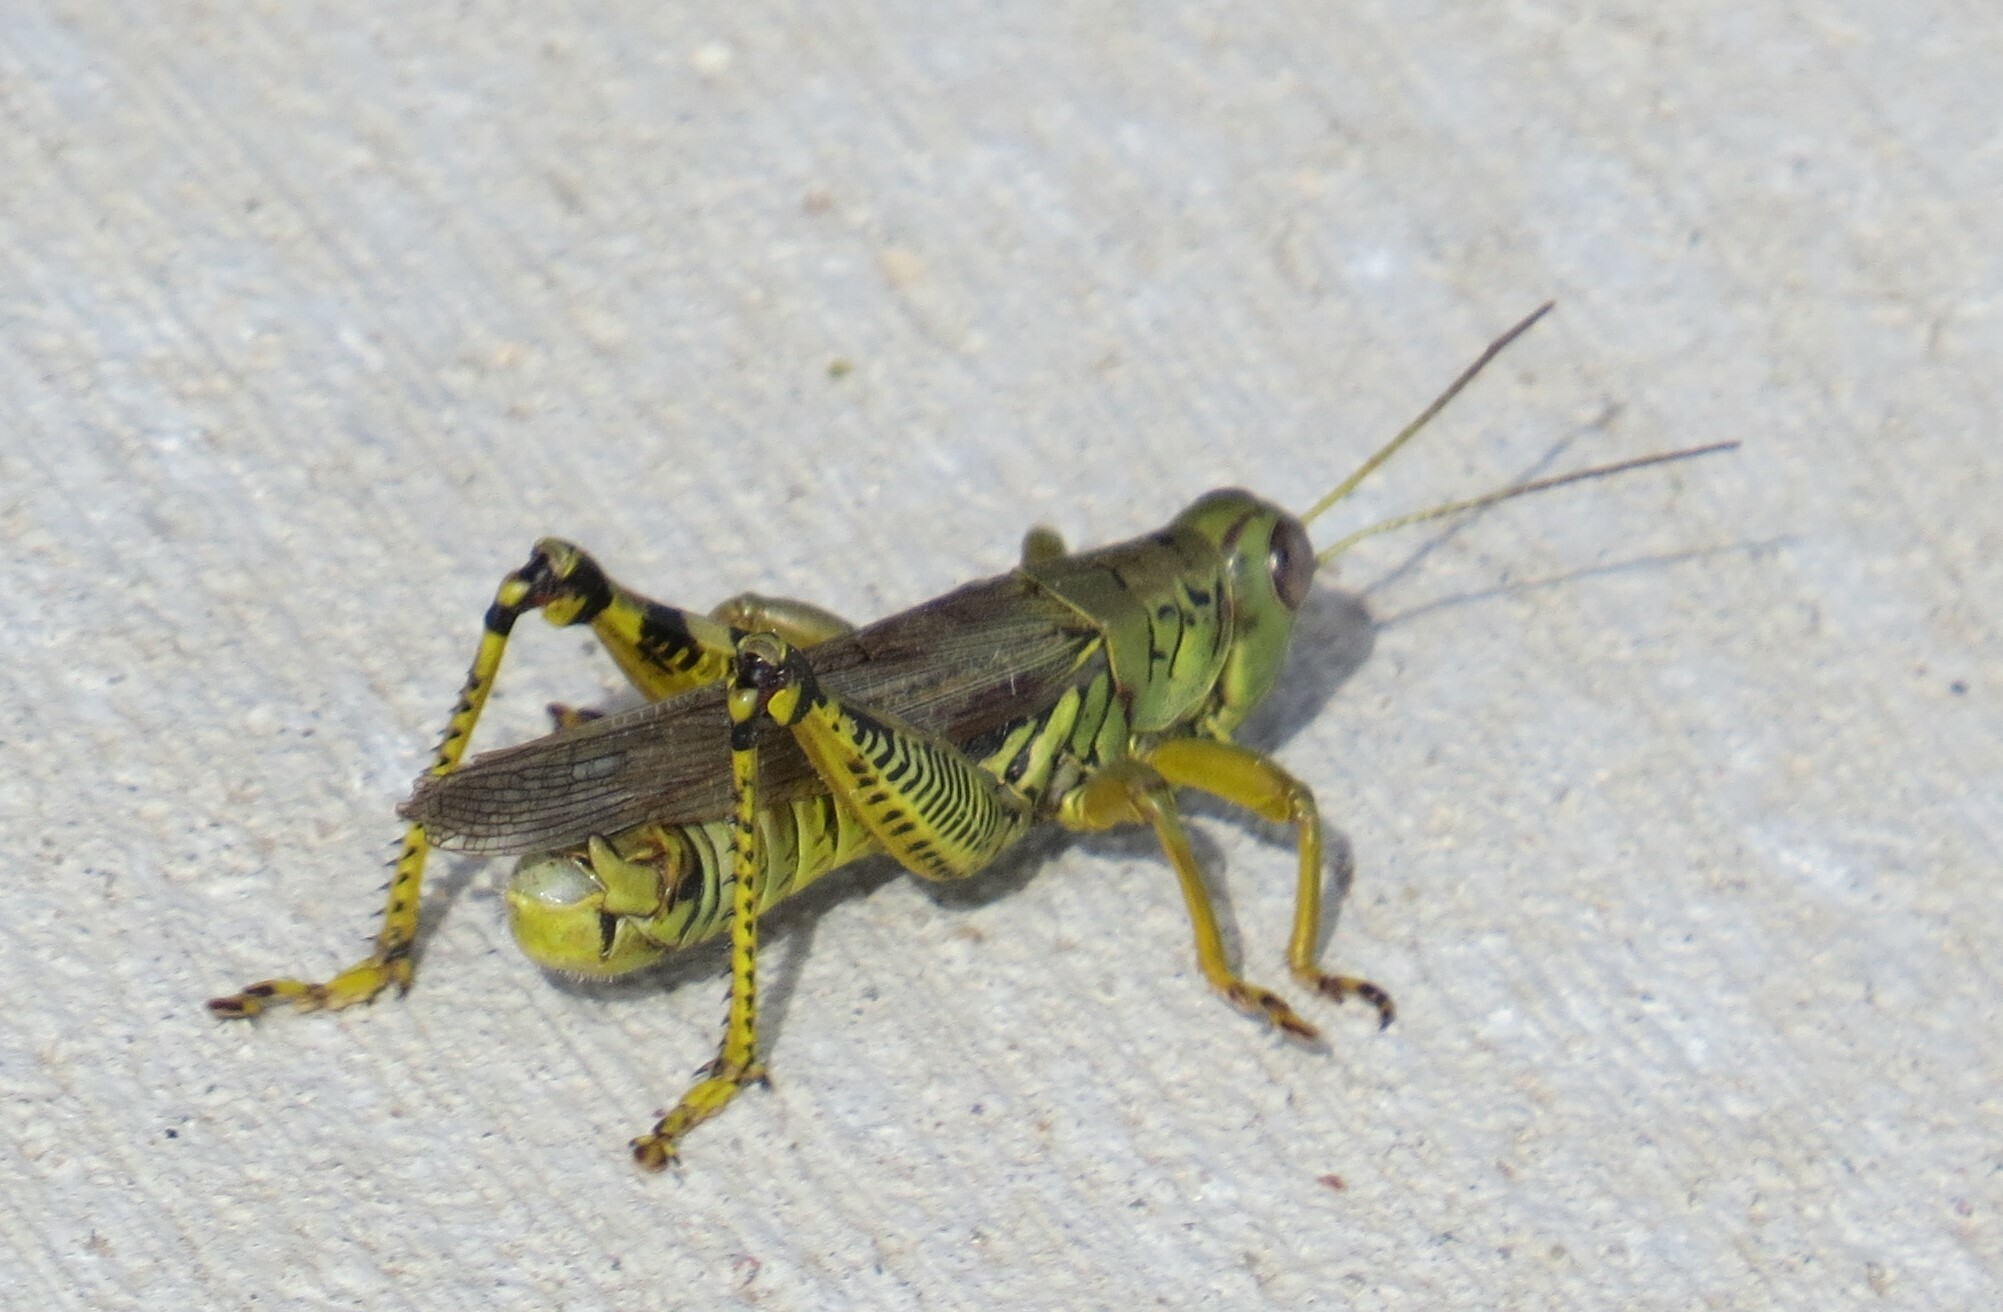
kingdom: Animalia
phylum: Arthropoda
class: Insecta
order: Orthoptera
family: Acrididae
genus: Melanoplus
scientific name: Melanoplus differentialis
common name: Differential grasshopper
